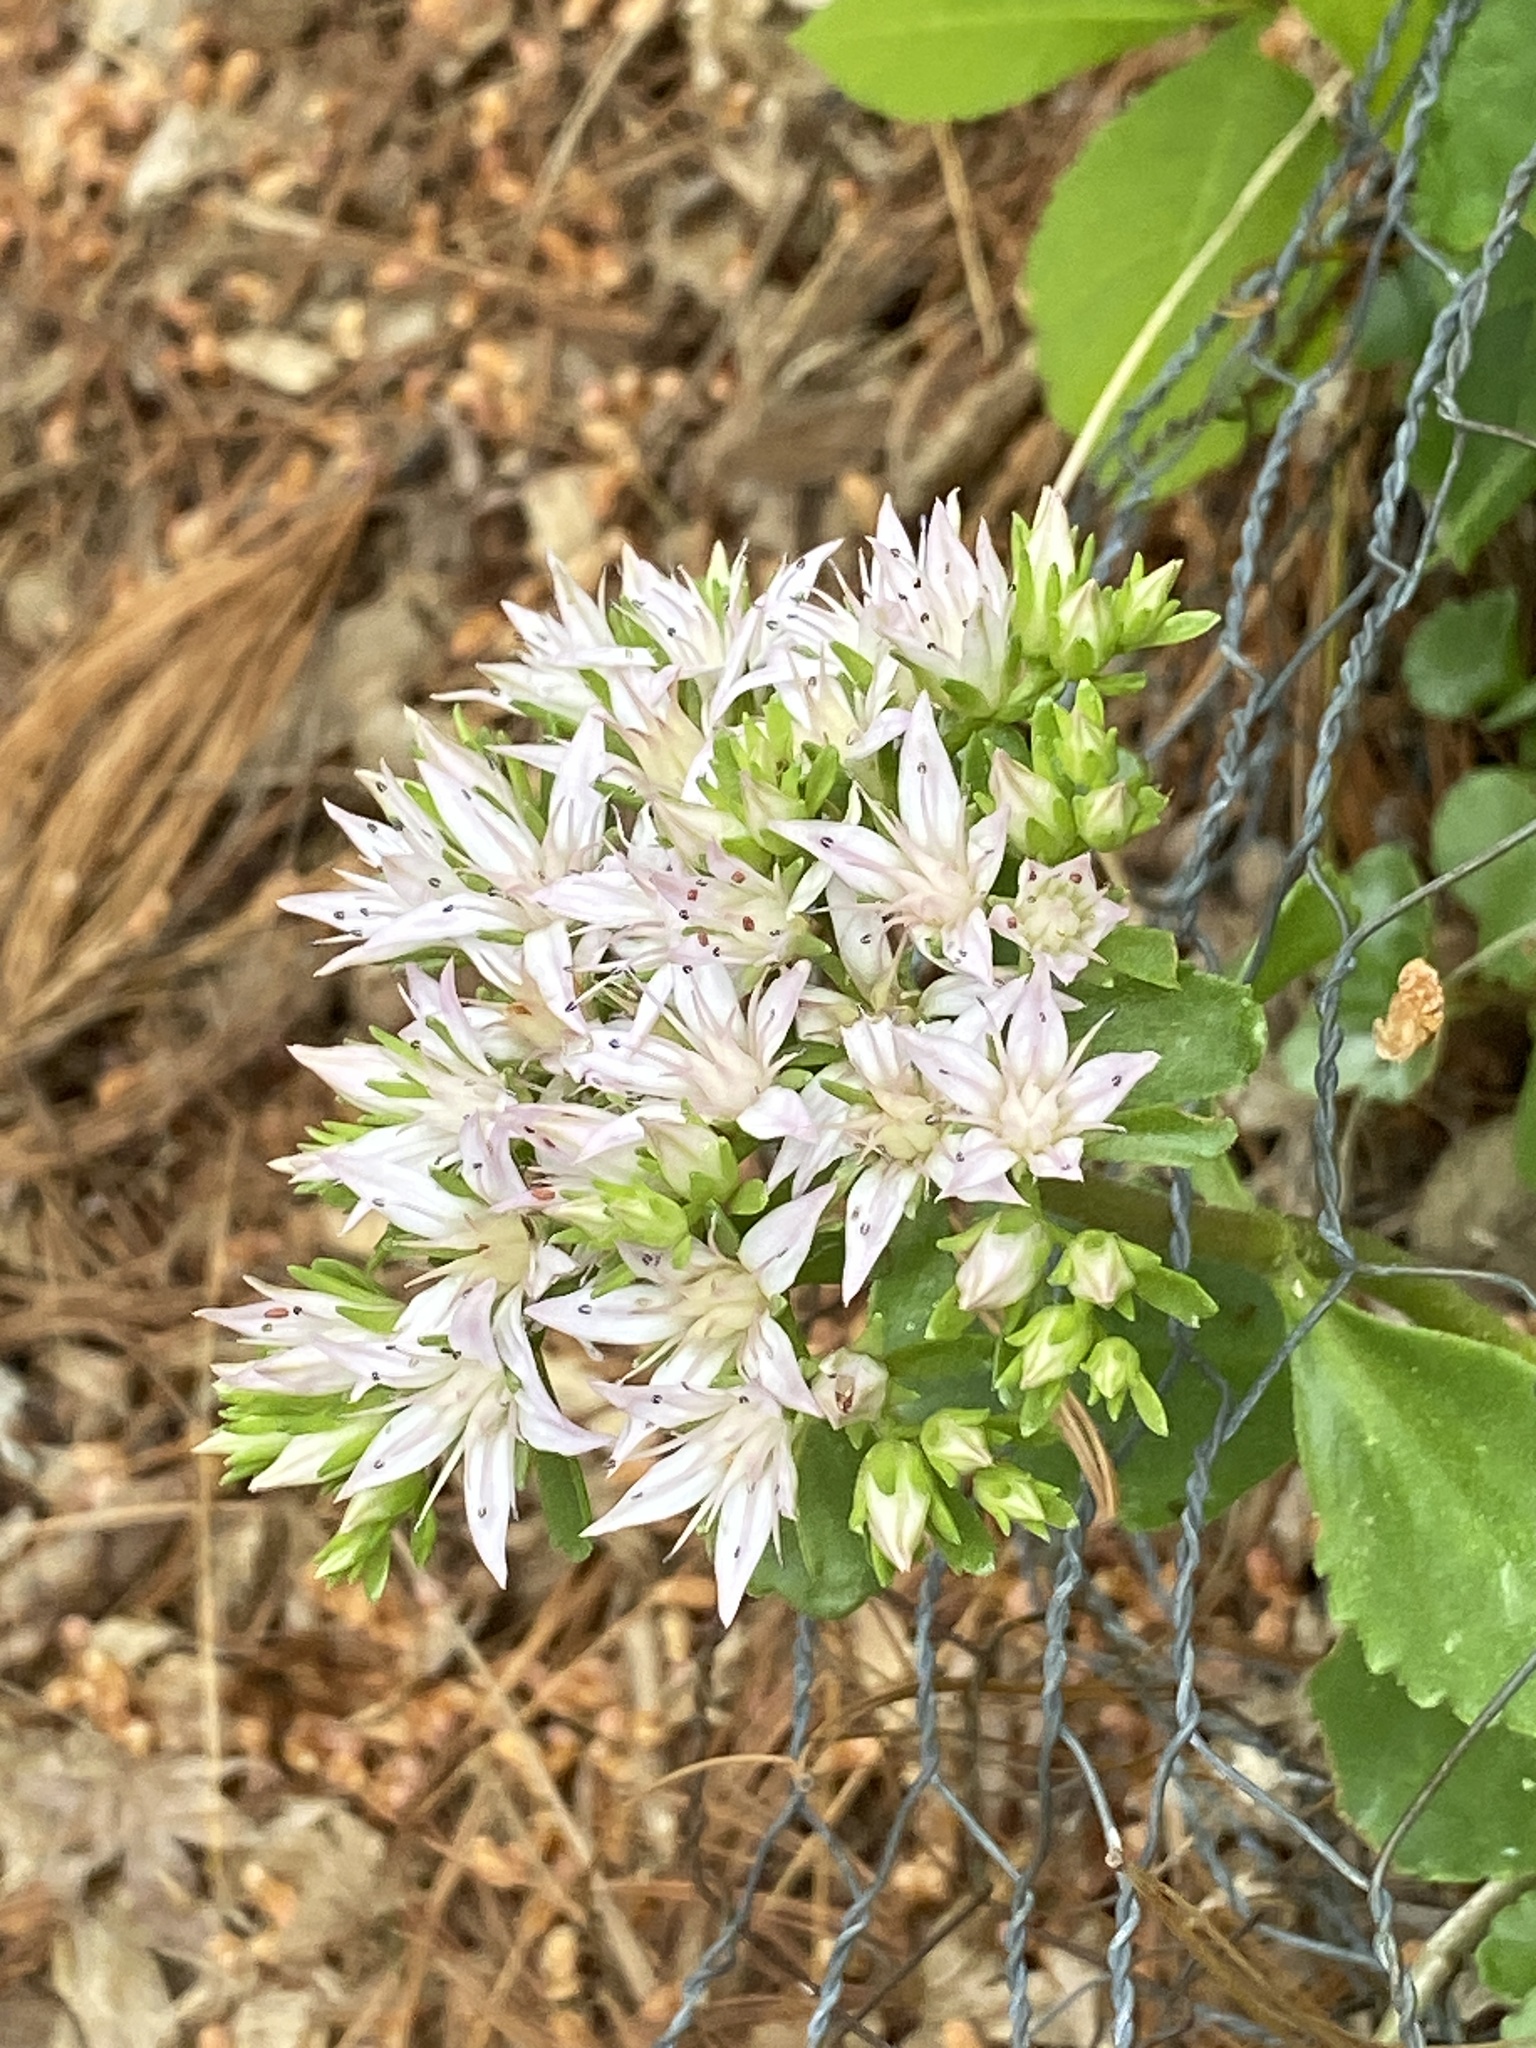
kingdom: Plantae
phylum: Tracheophyta
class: Magnoliopsida
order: Saxifragales
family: Crassulaceae
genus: Phedimus
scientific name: Phedimus spurius
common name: Caucasian stonecrop
